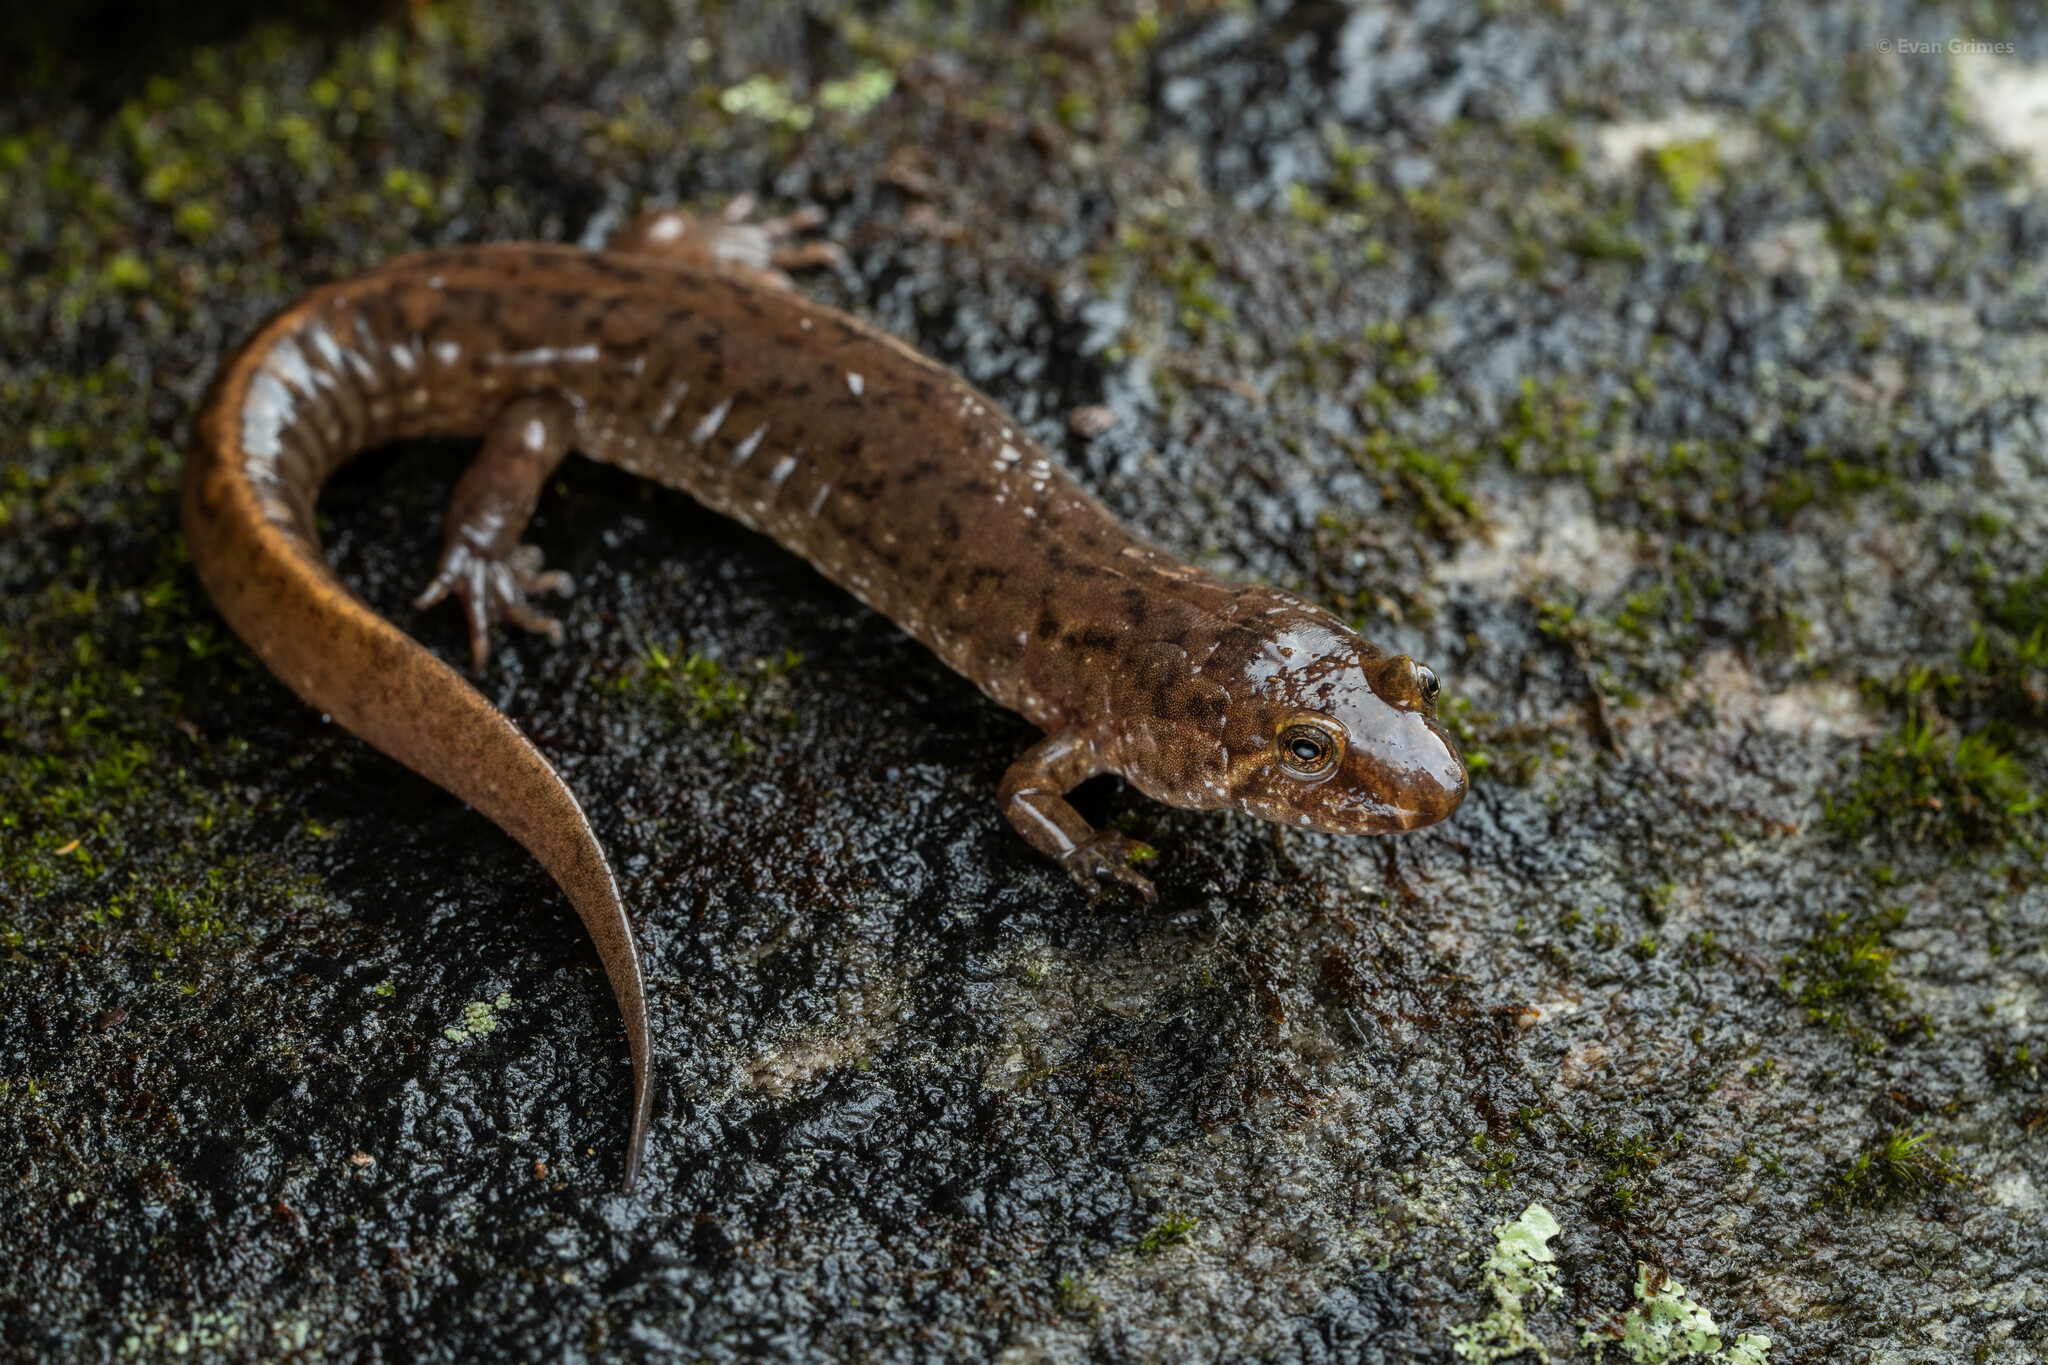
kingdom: Animalia
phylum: Chordata
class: Amphibia
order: Caudata
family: Plethodontidae
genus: Desmognathus
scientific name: Desmognathus
